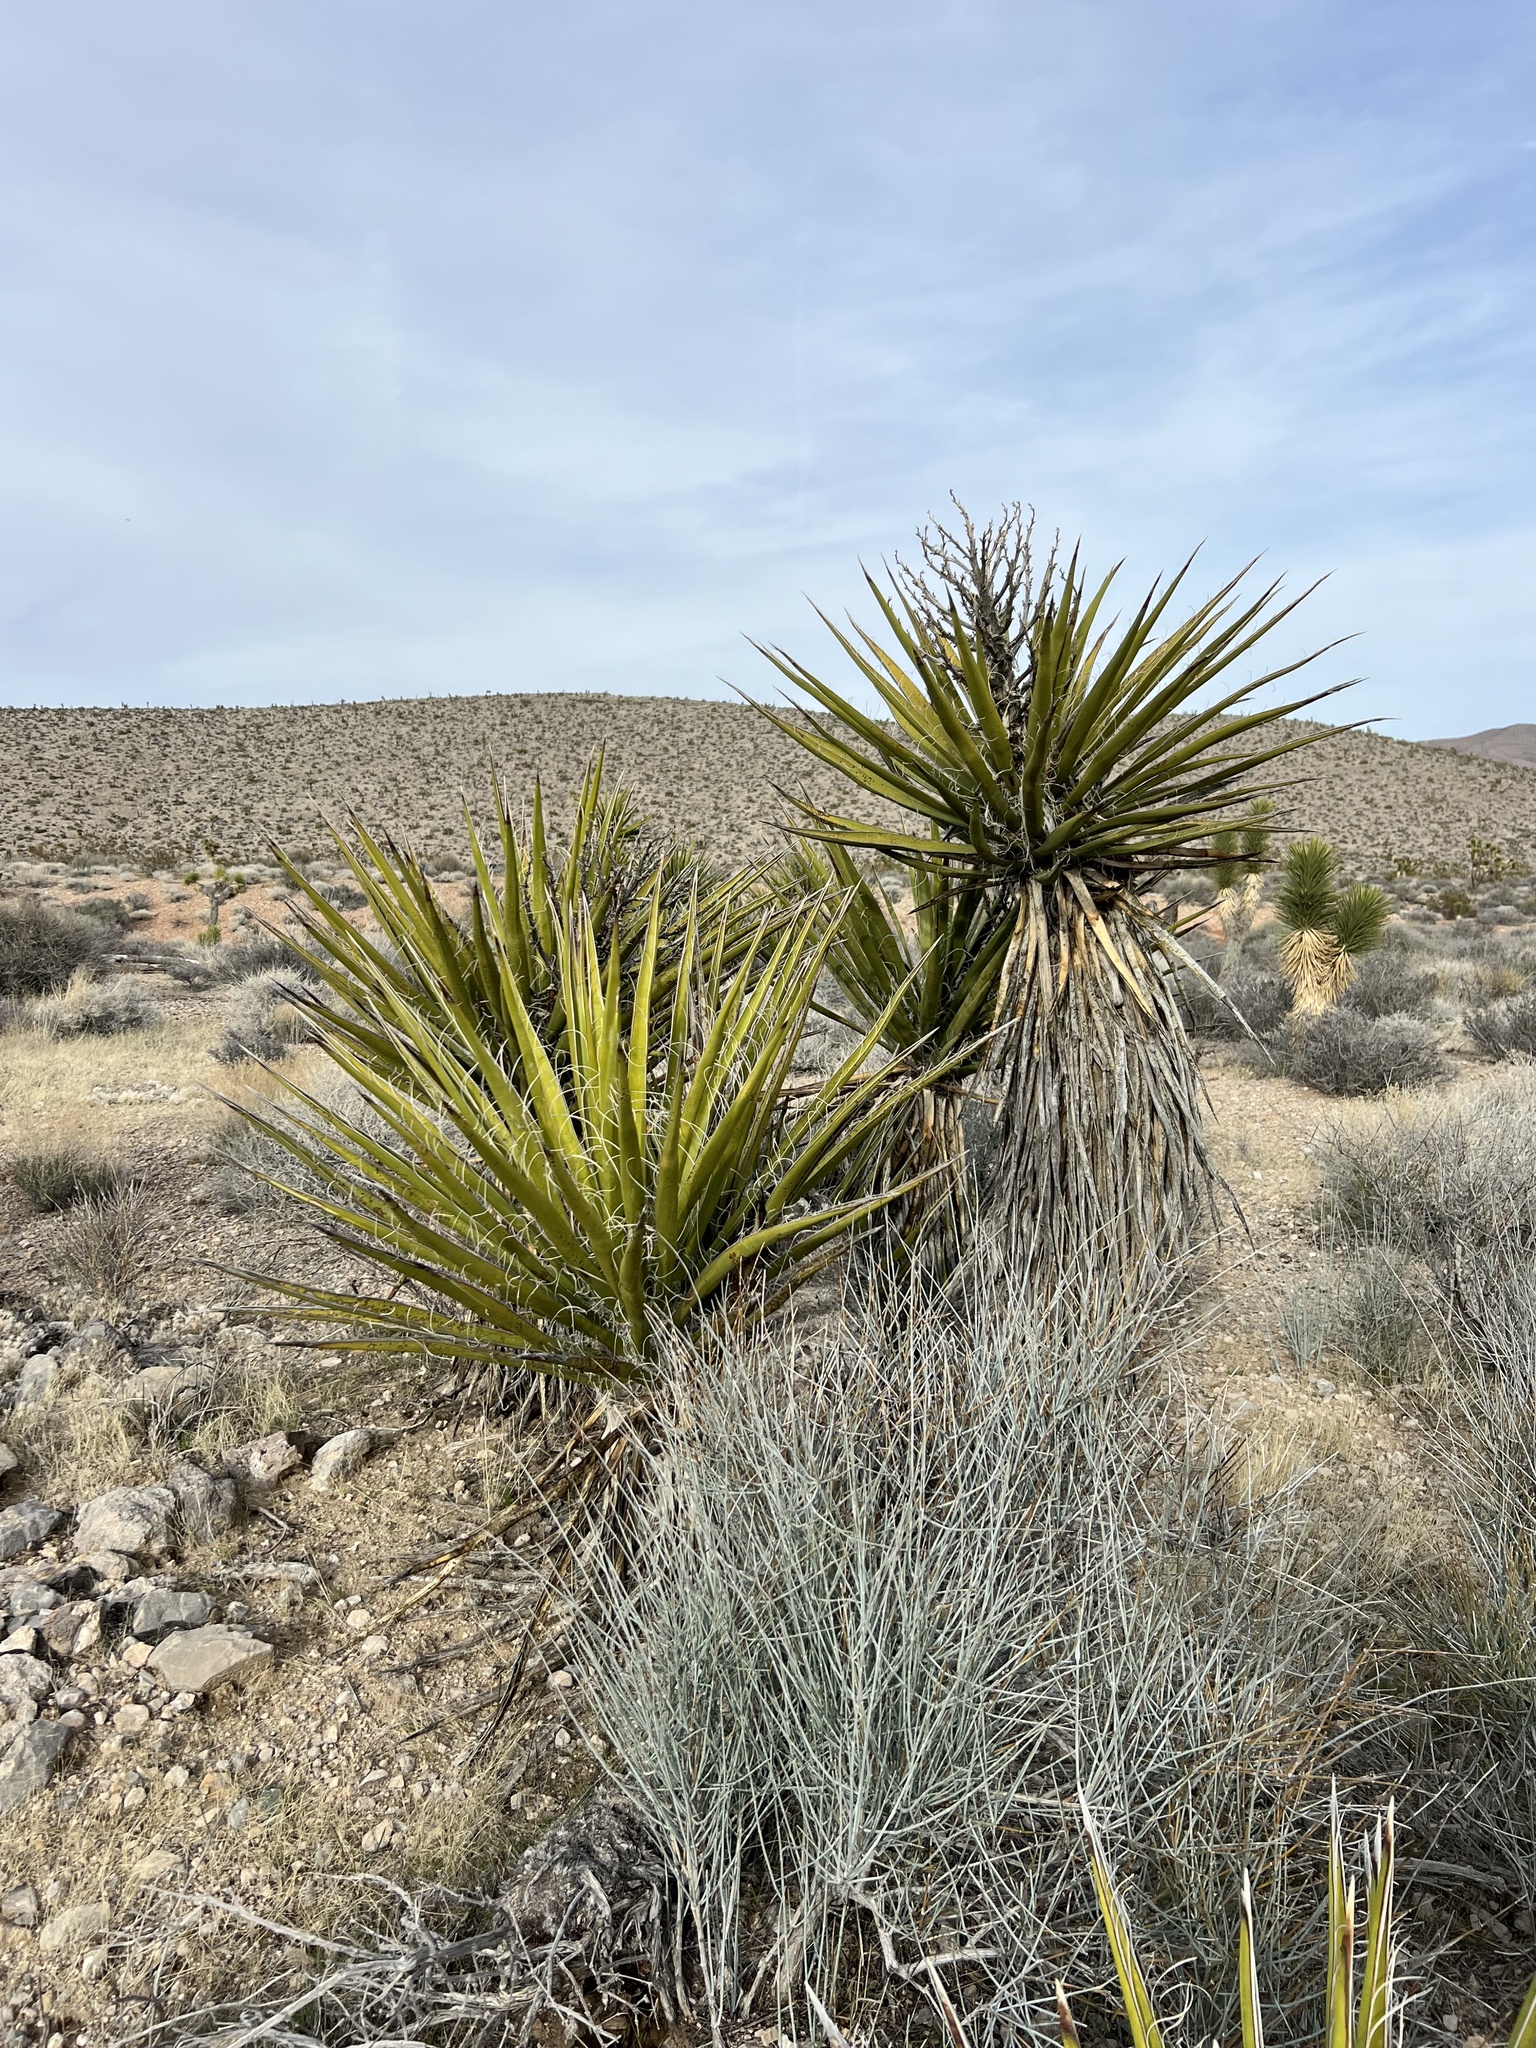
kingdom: Plantae
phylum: Tracheophyta
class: Liliopsida
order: Asparagales
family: Asparagaceae
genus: Yucca
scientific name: Yucca schidigera
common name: Mojave yucca
